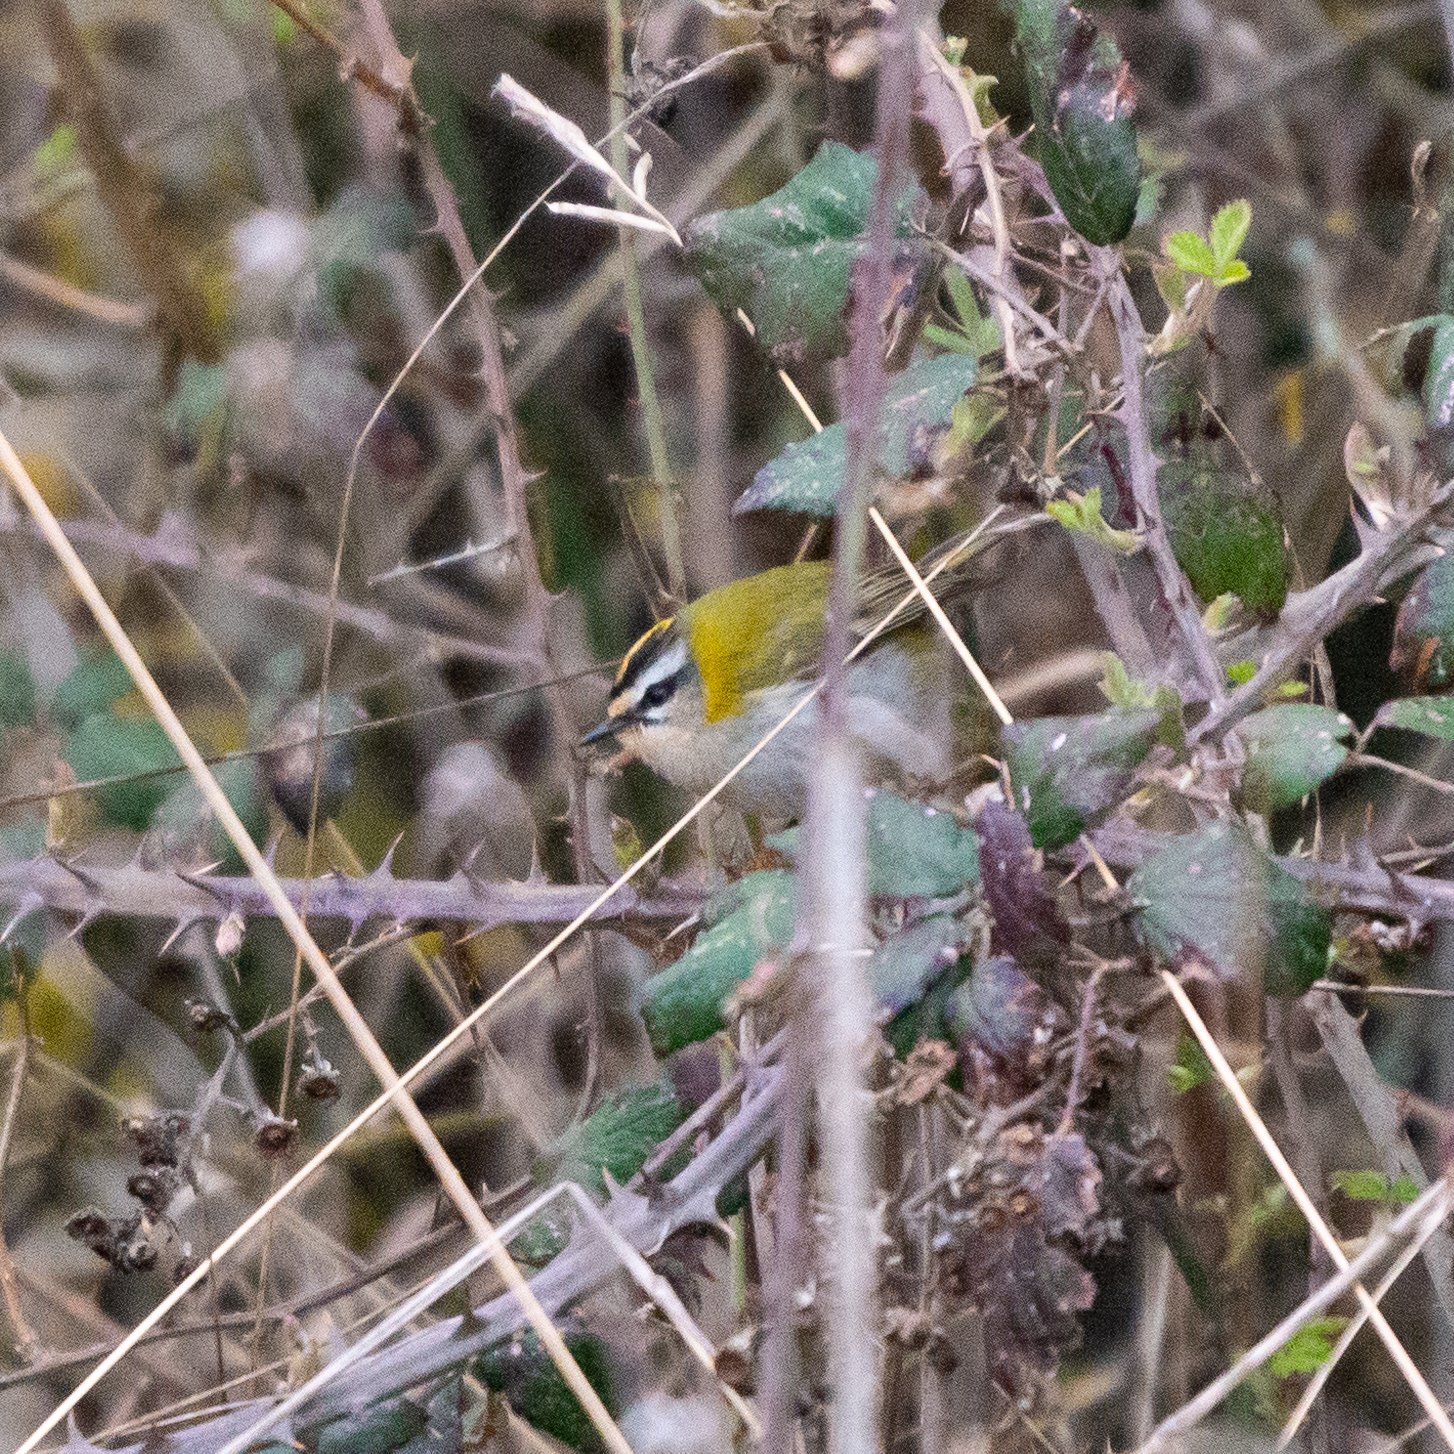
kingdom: Animalia
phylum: Chordata
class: Aves
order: Passeriformes
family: Regulidae
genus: Regulus
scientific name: Regulus ignicapilla
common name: Firecrest
